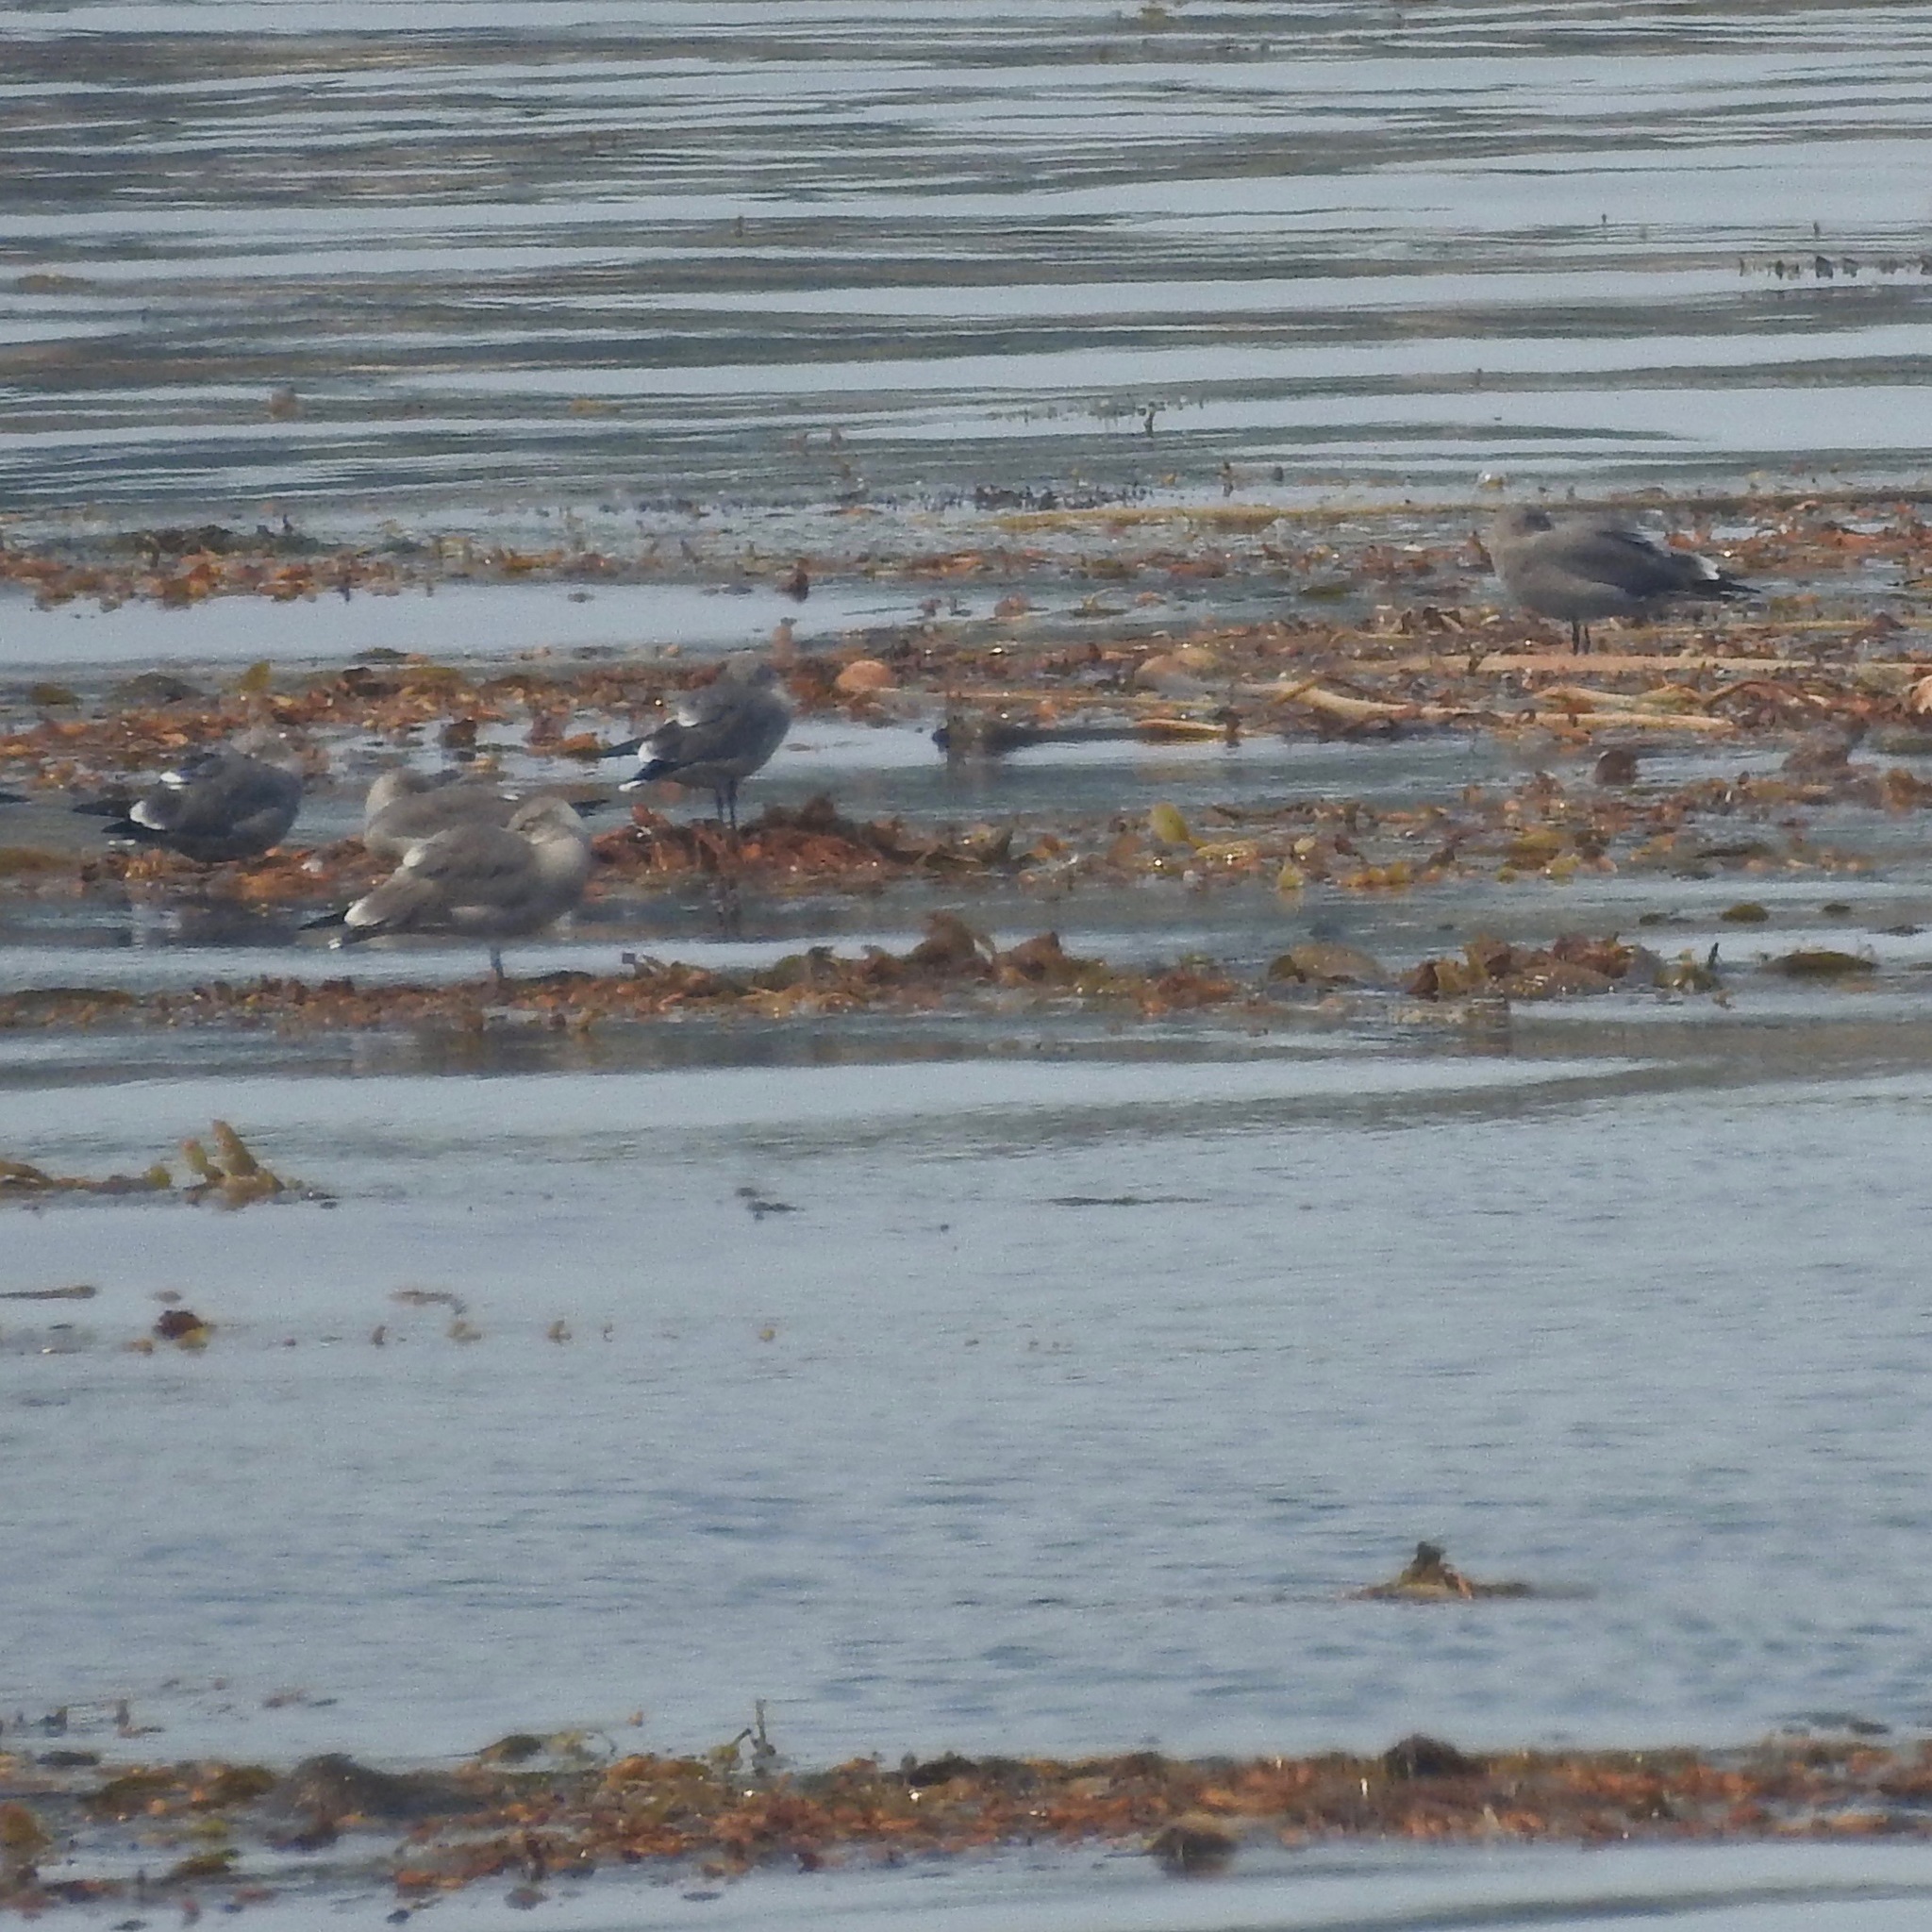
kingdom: Animalia
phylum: Chordata
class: Aves
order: Charadriiformes
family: Laridae
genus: Larus
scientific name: Larus heermanni
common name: Heermann's gull
